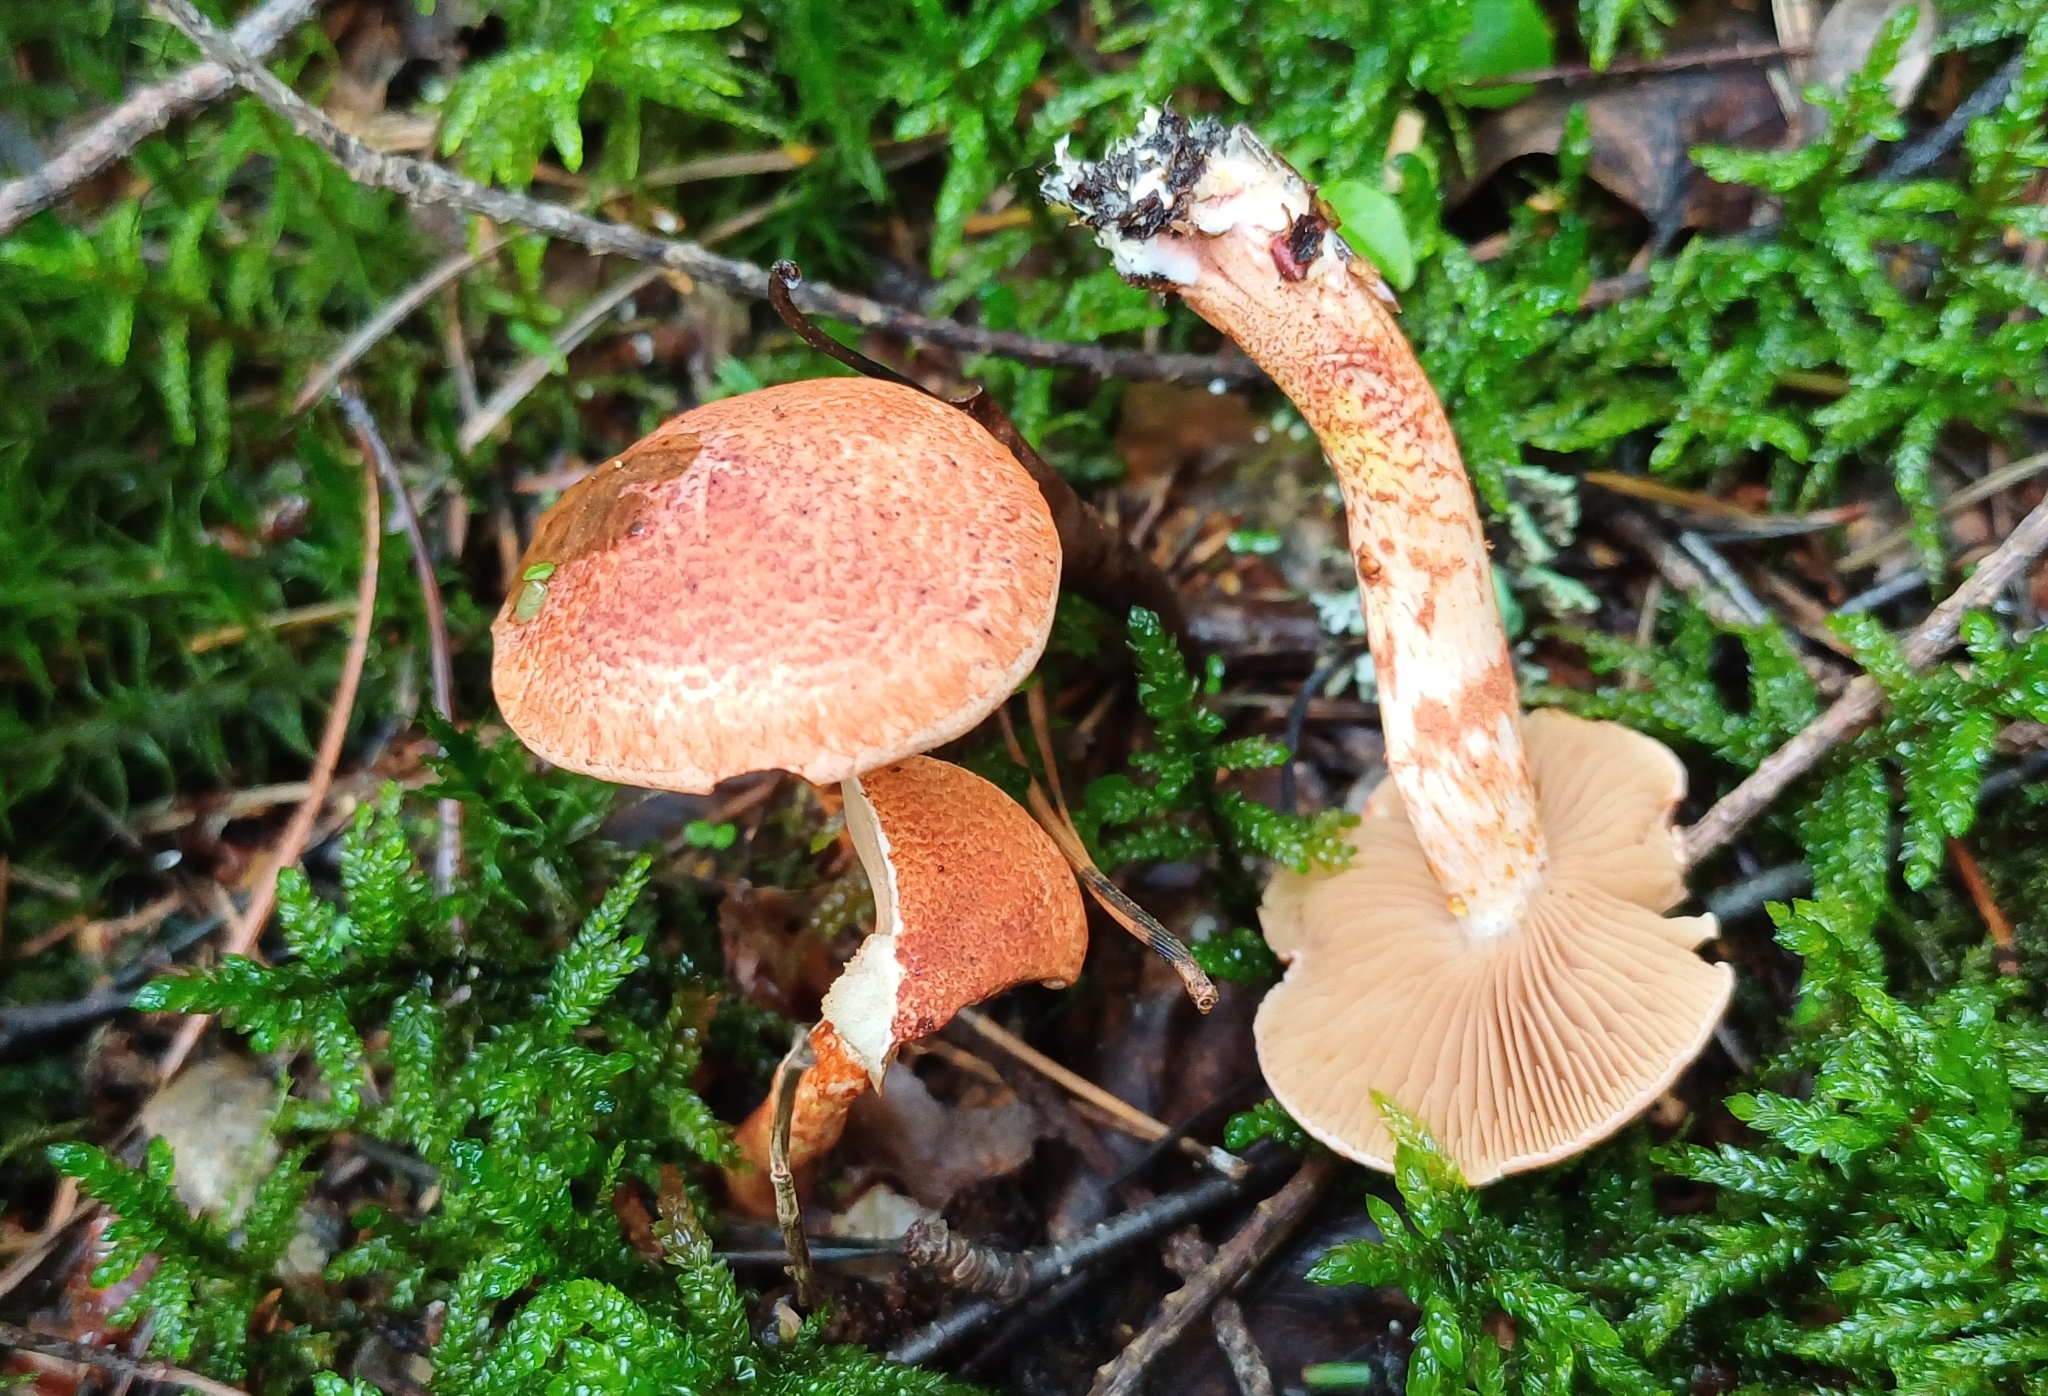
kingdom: Fungi
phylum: Basidiomycota
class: Agaricomycetes
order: Agaricales
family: Cortinariaceae
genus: Cortinarius
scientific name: Cortinarius bolaris
